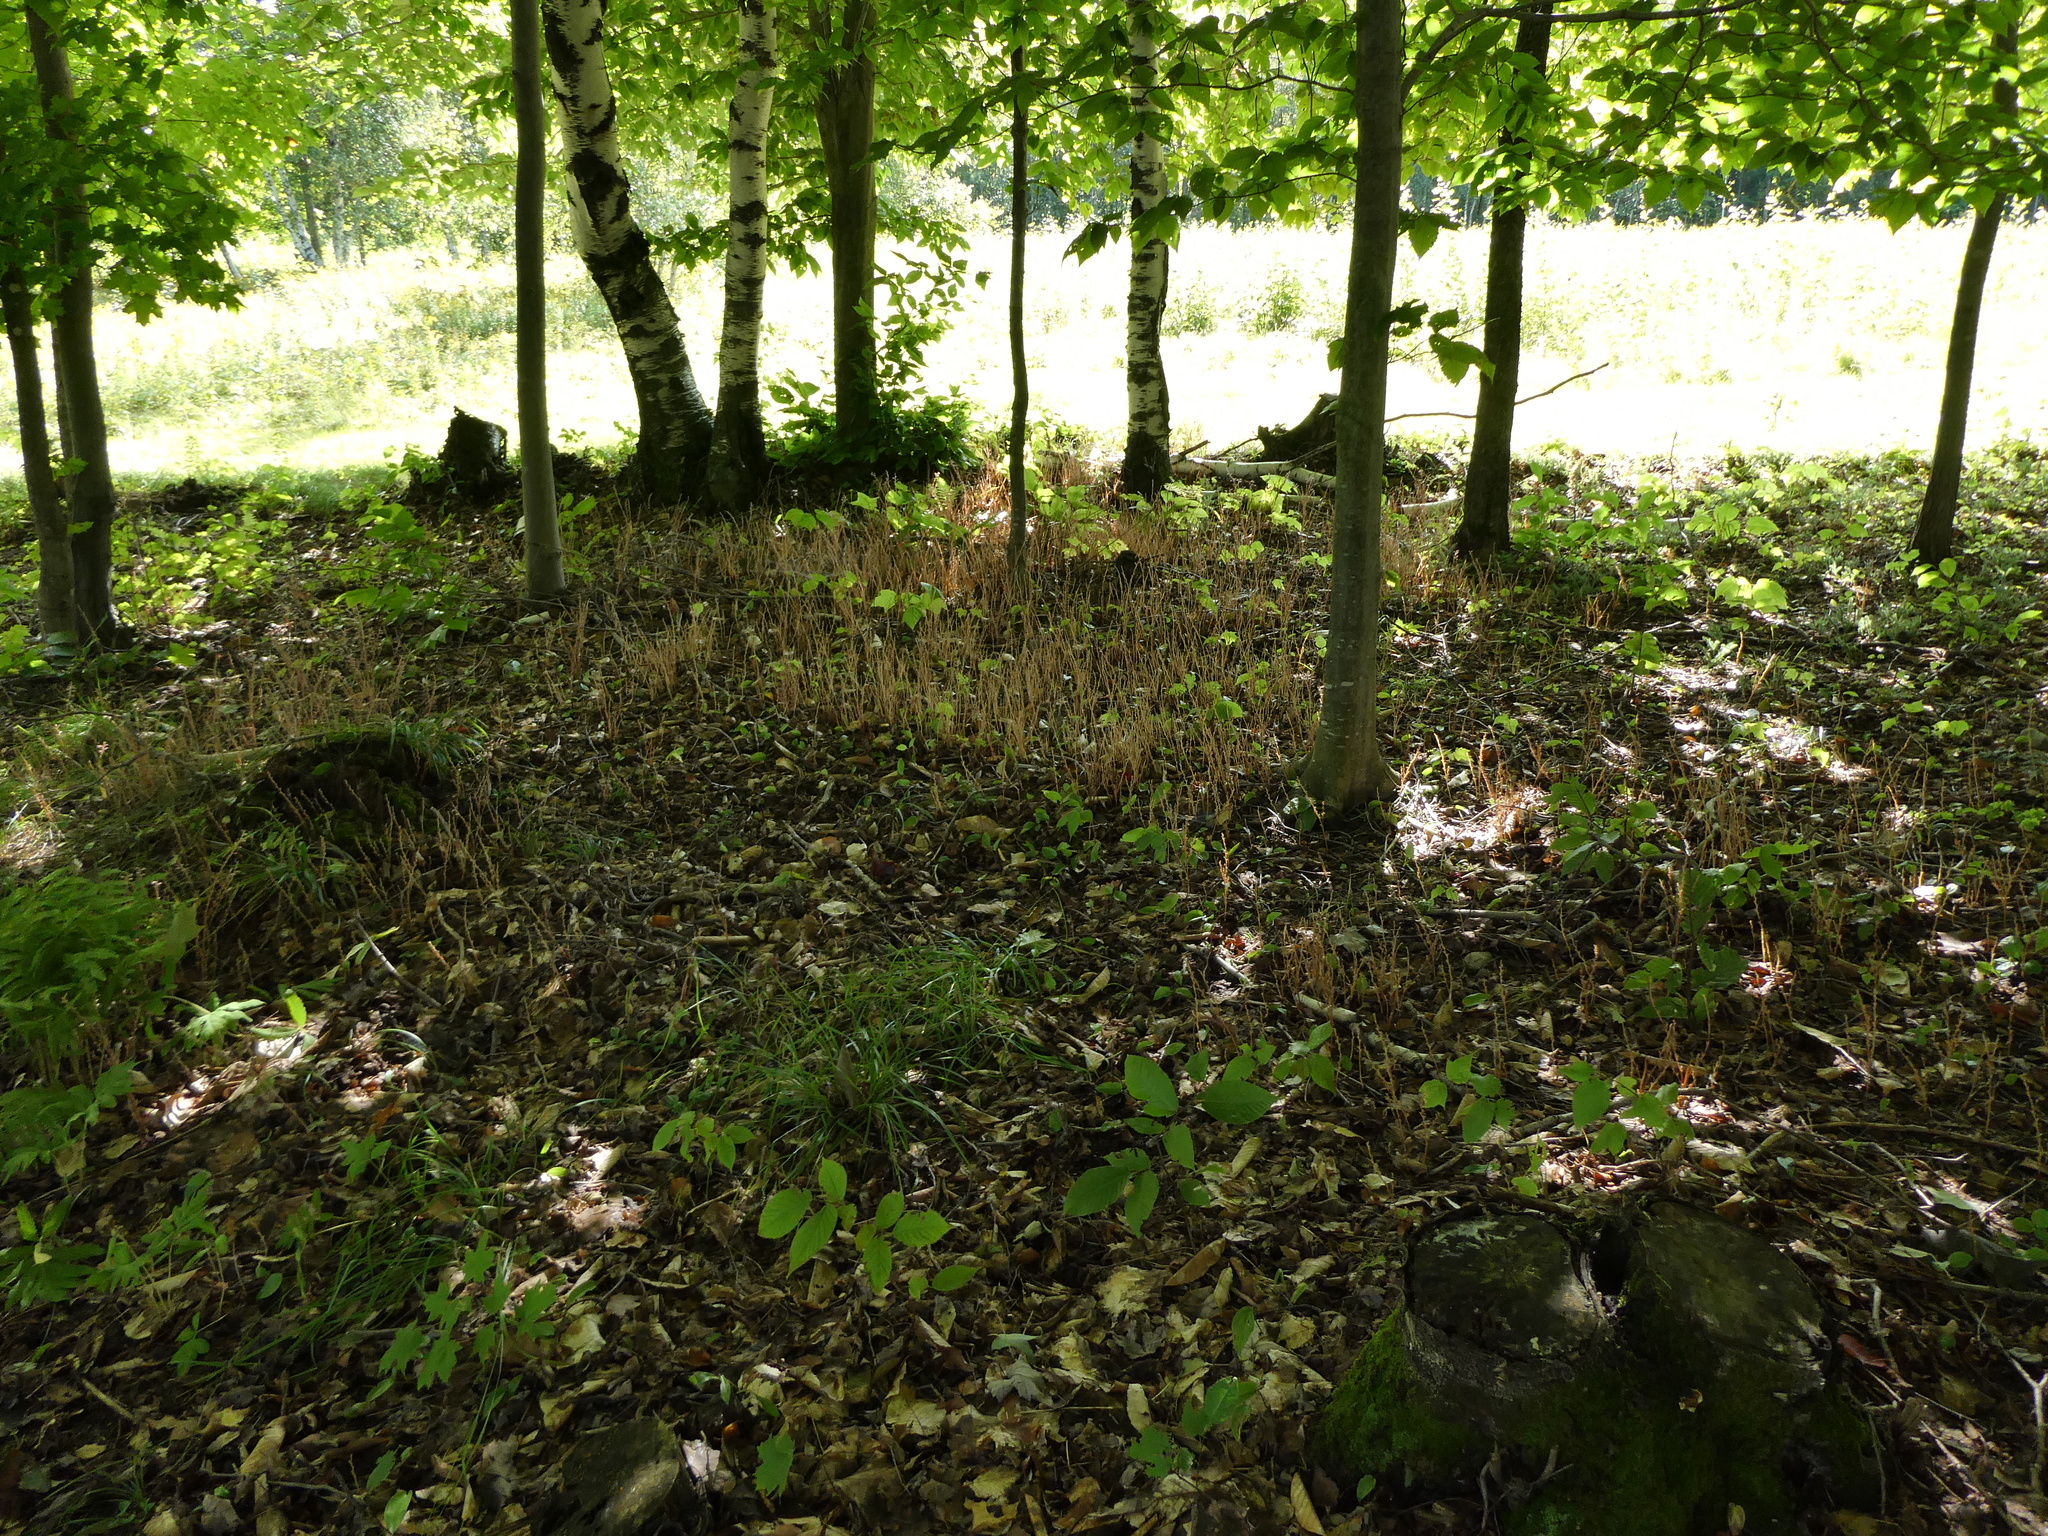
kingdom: Plantae
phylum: Tracheophyta
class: Magnoliopsida
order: Lamiales
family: Orobanchaceae
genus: Epifagus
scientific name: Epifagus virginiana
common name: Beechdrops
